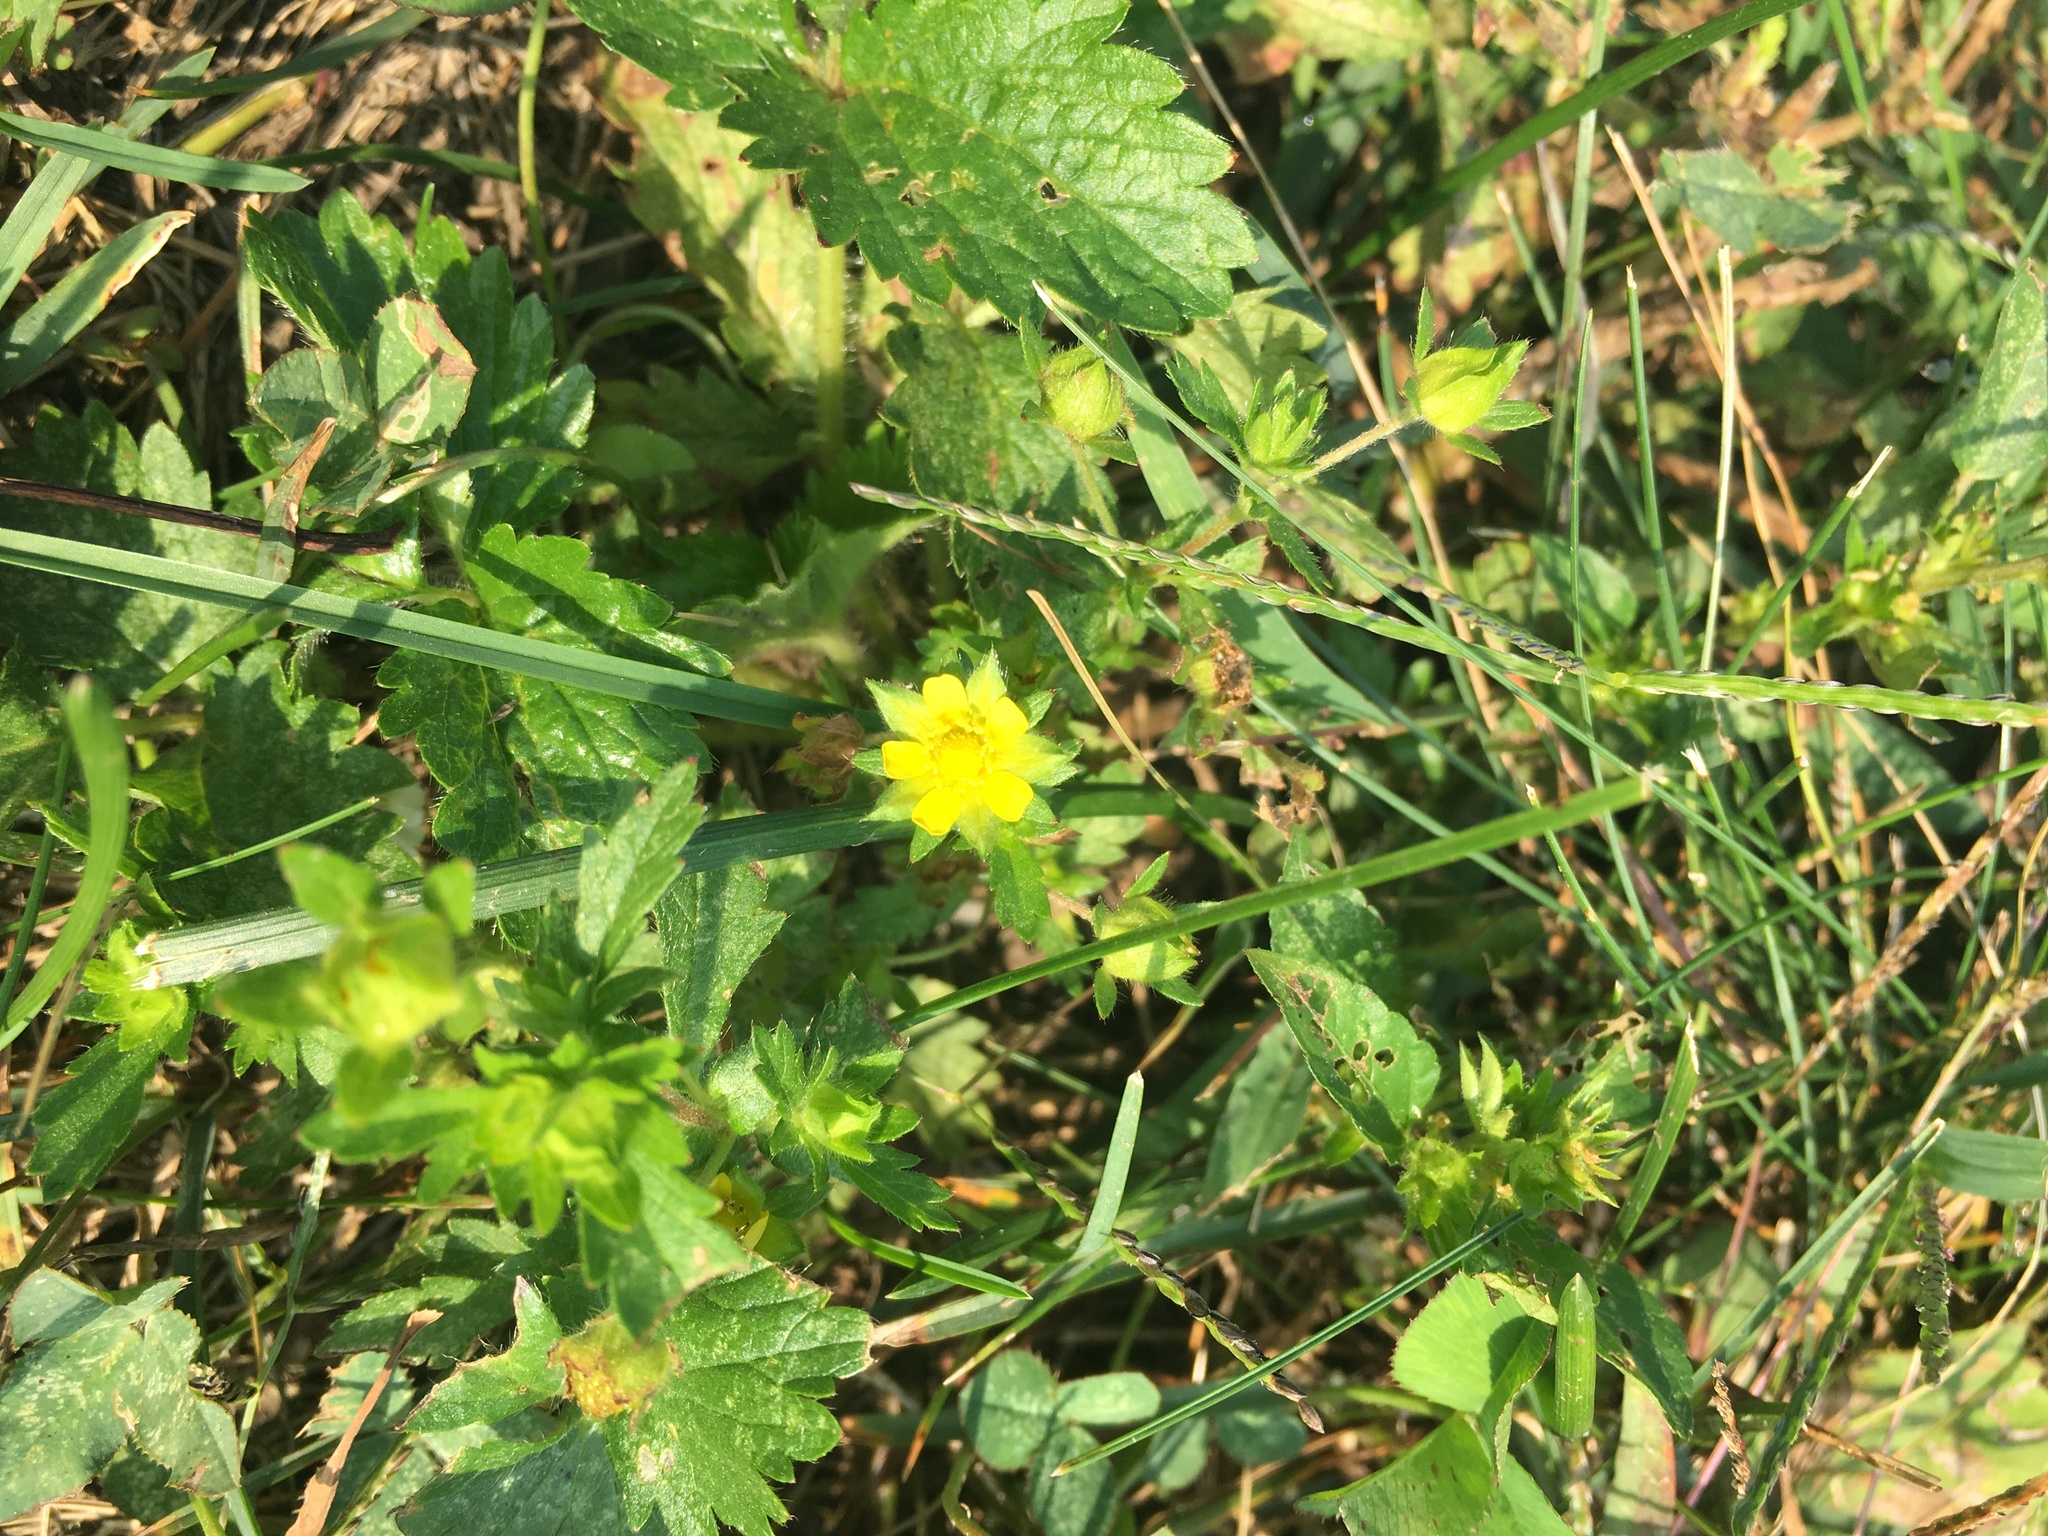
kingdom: Plantae
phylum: Tracheophyta
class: Magnoliopsida
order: Rosales
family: Rosaceae
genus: Potentilla
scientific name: Potentilla indica
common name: Yellow-flowered strawberry
